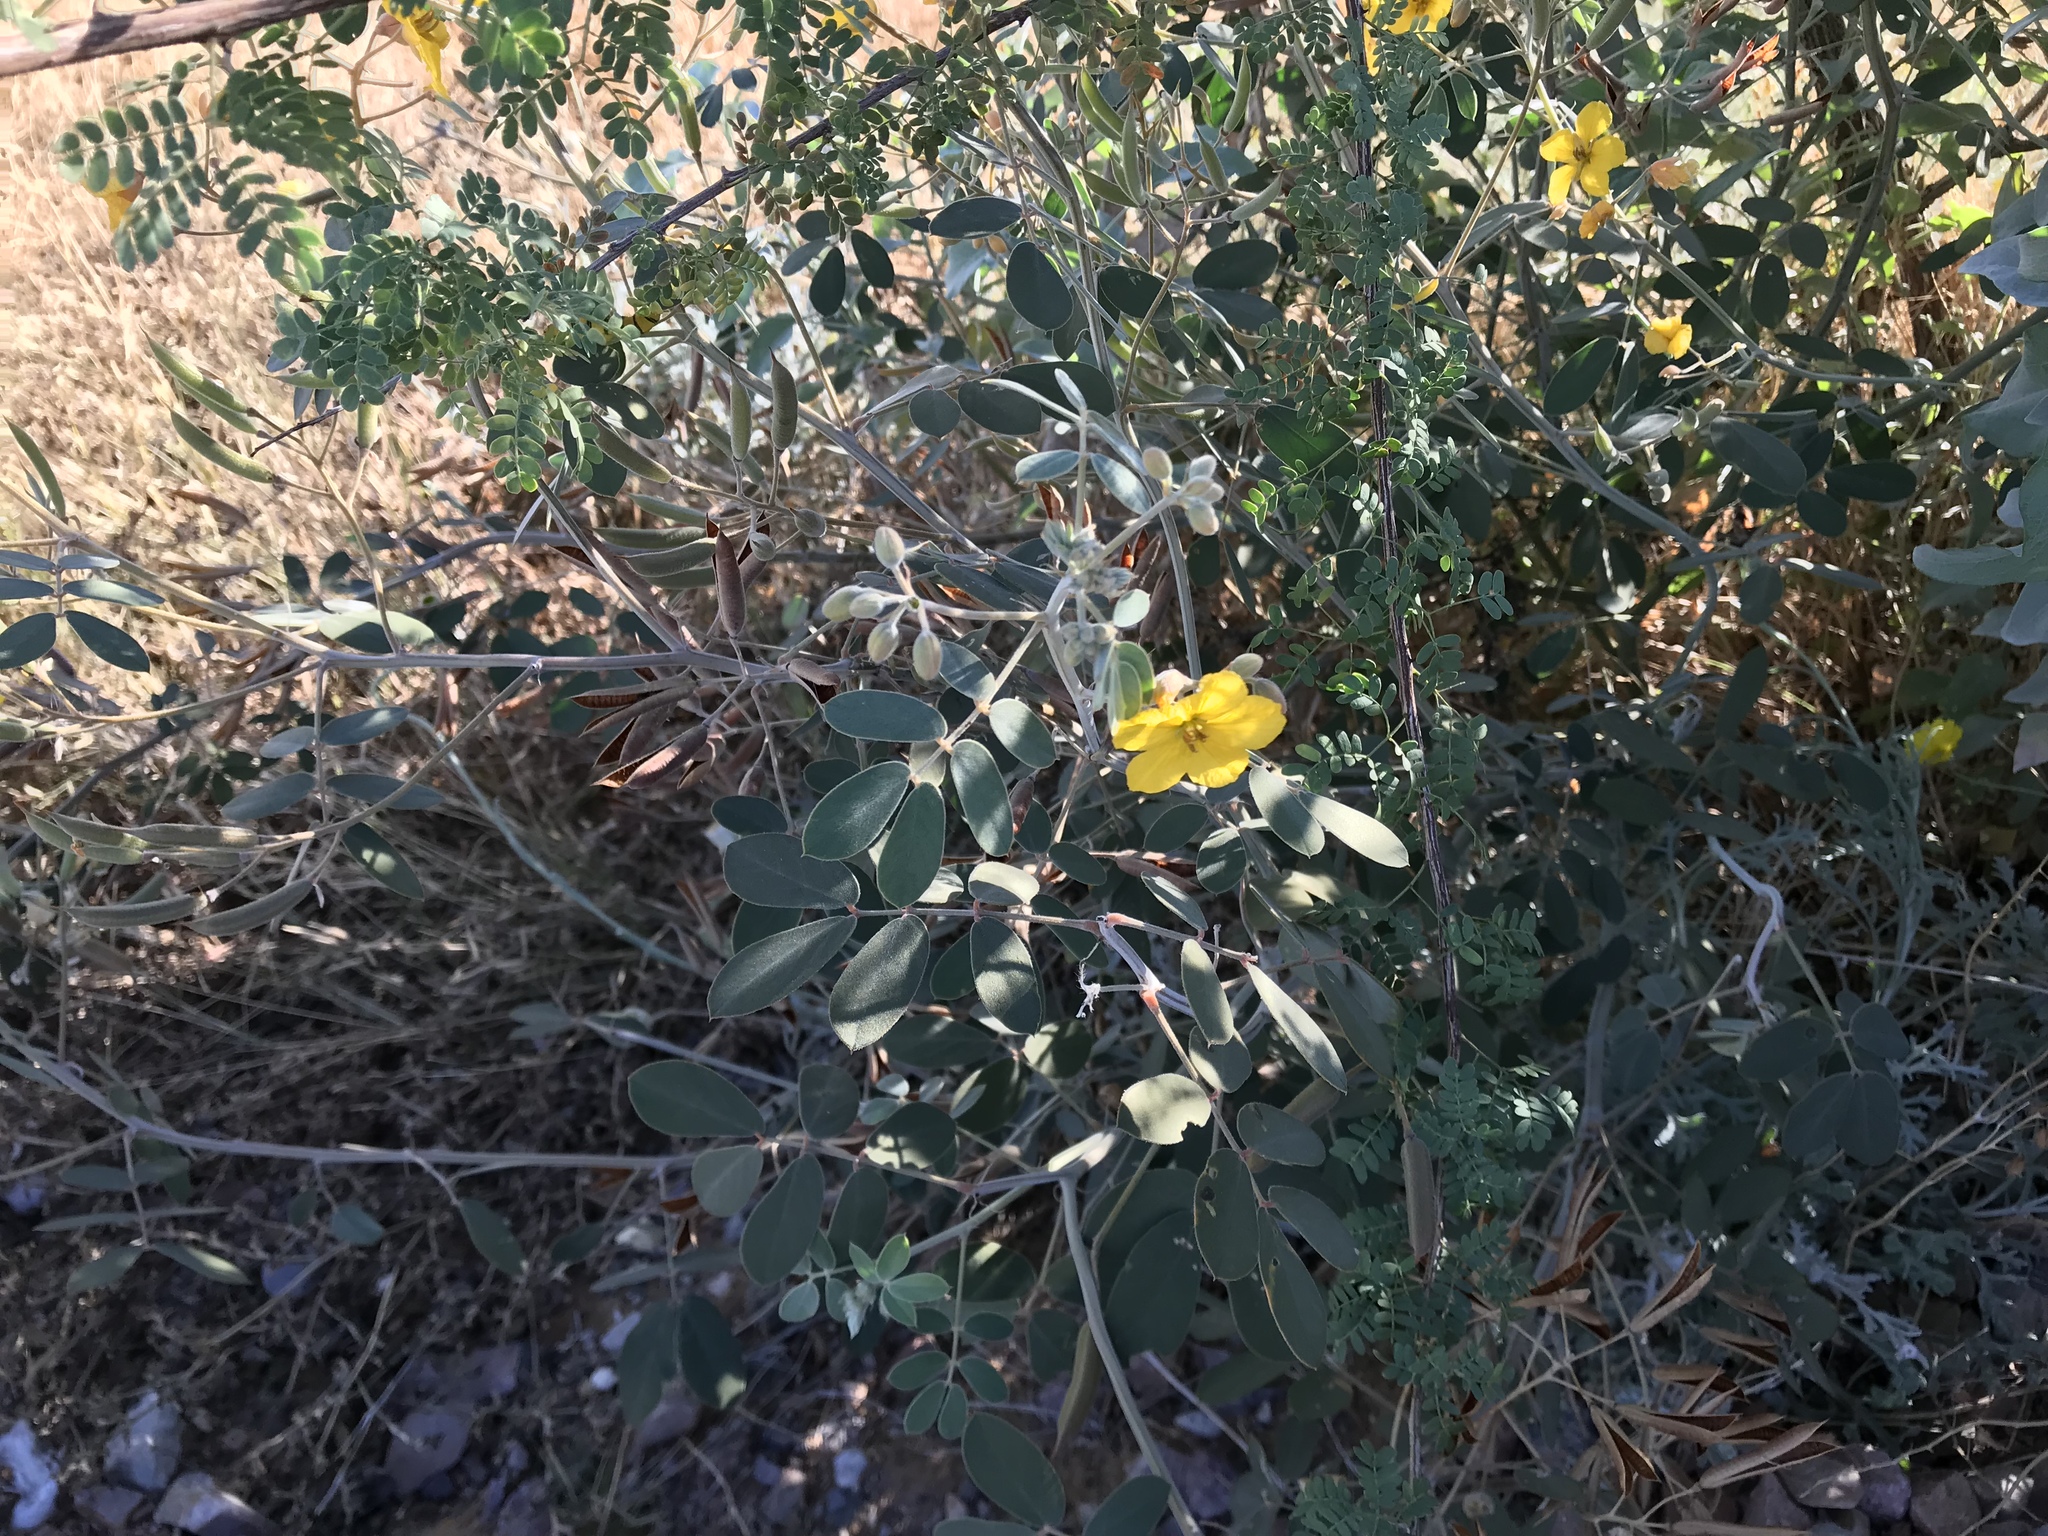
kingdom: Plantae
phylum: Tracheophyta
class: Magnoliopsida
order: Fabales
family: Fabaceae
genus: Senna
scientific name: Senna covesii
